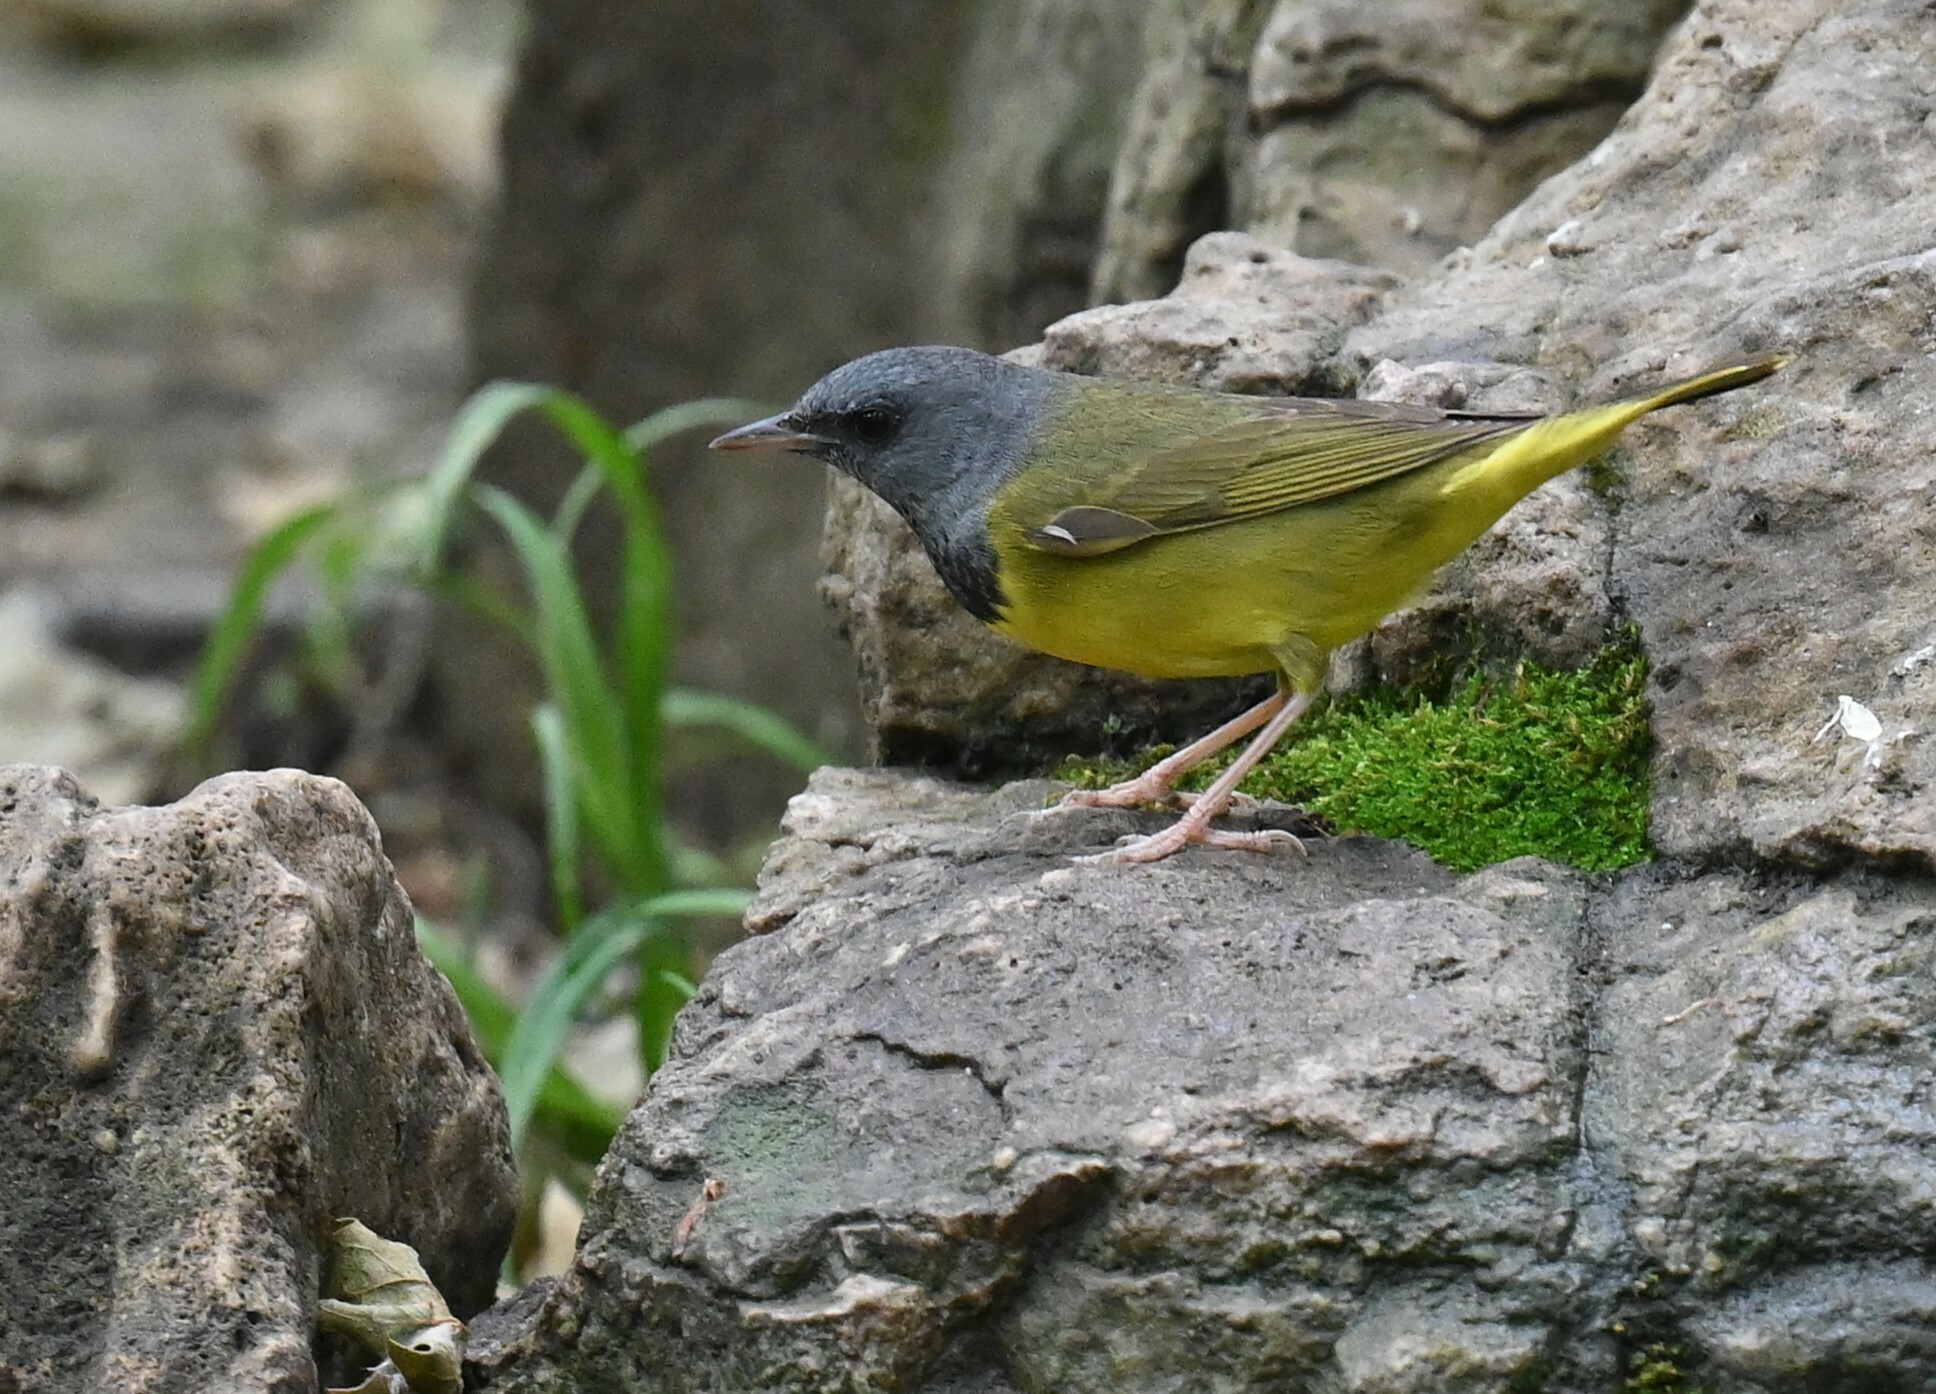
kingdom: Animalia
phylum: Chordata
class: Aves
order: Passeriformes
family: Parulidae
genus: Geothlypis
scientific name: Geothlypis philadelphia
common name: Mourning warbler
